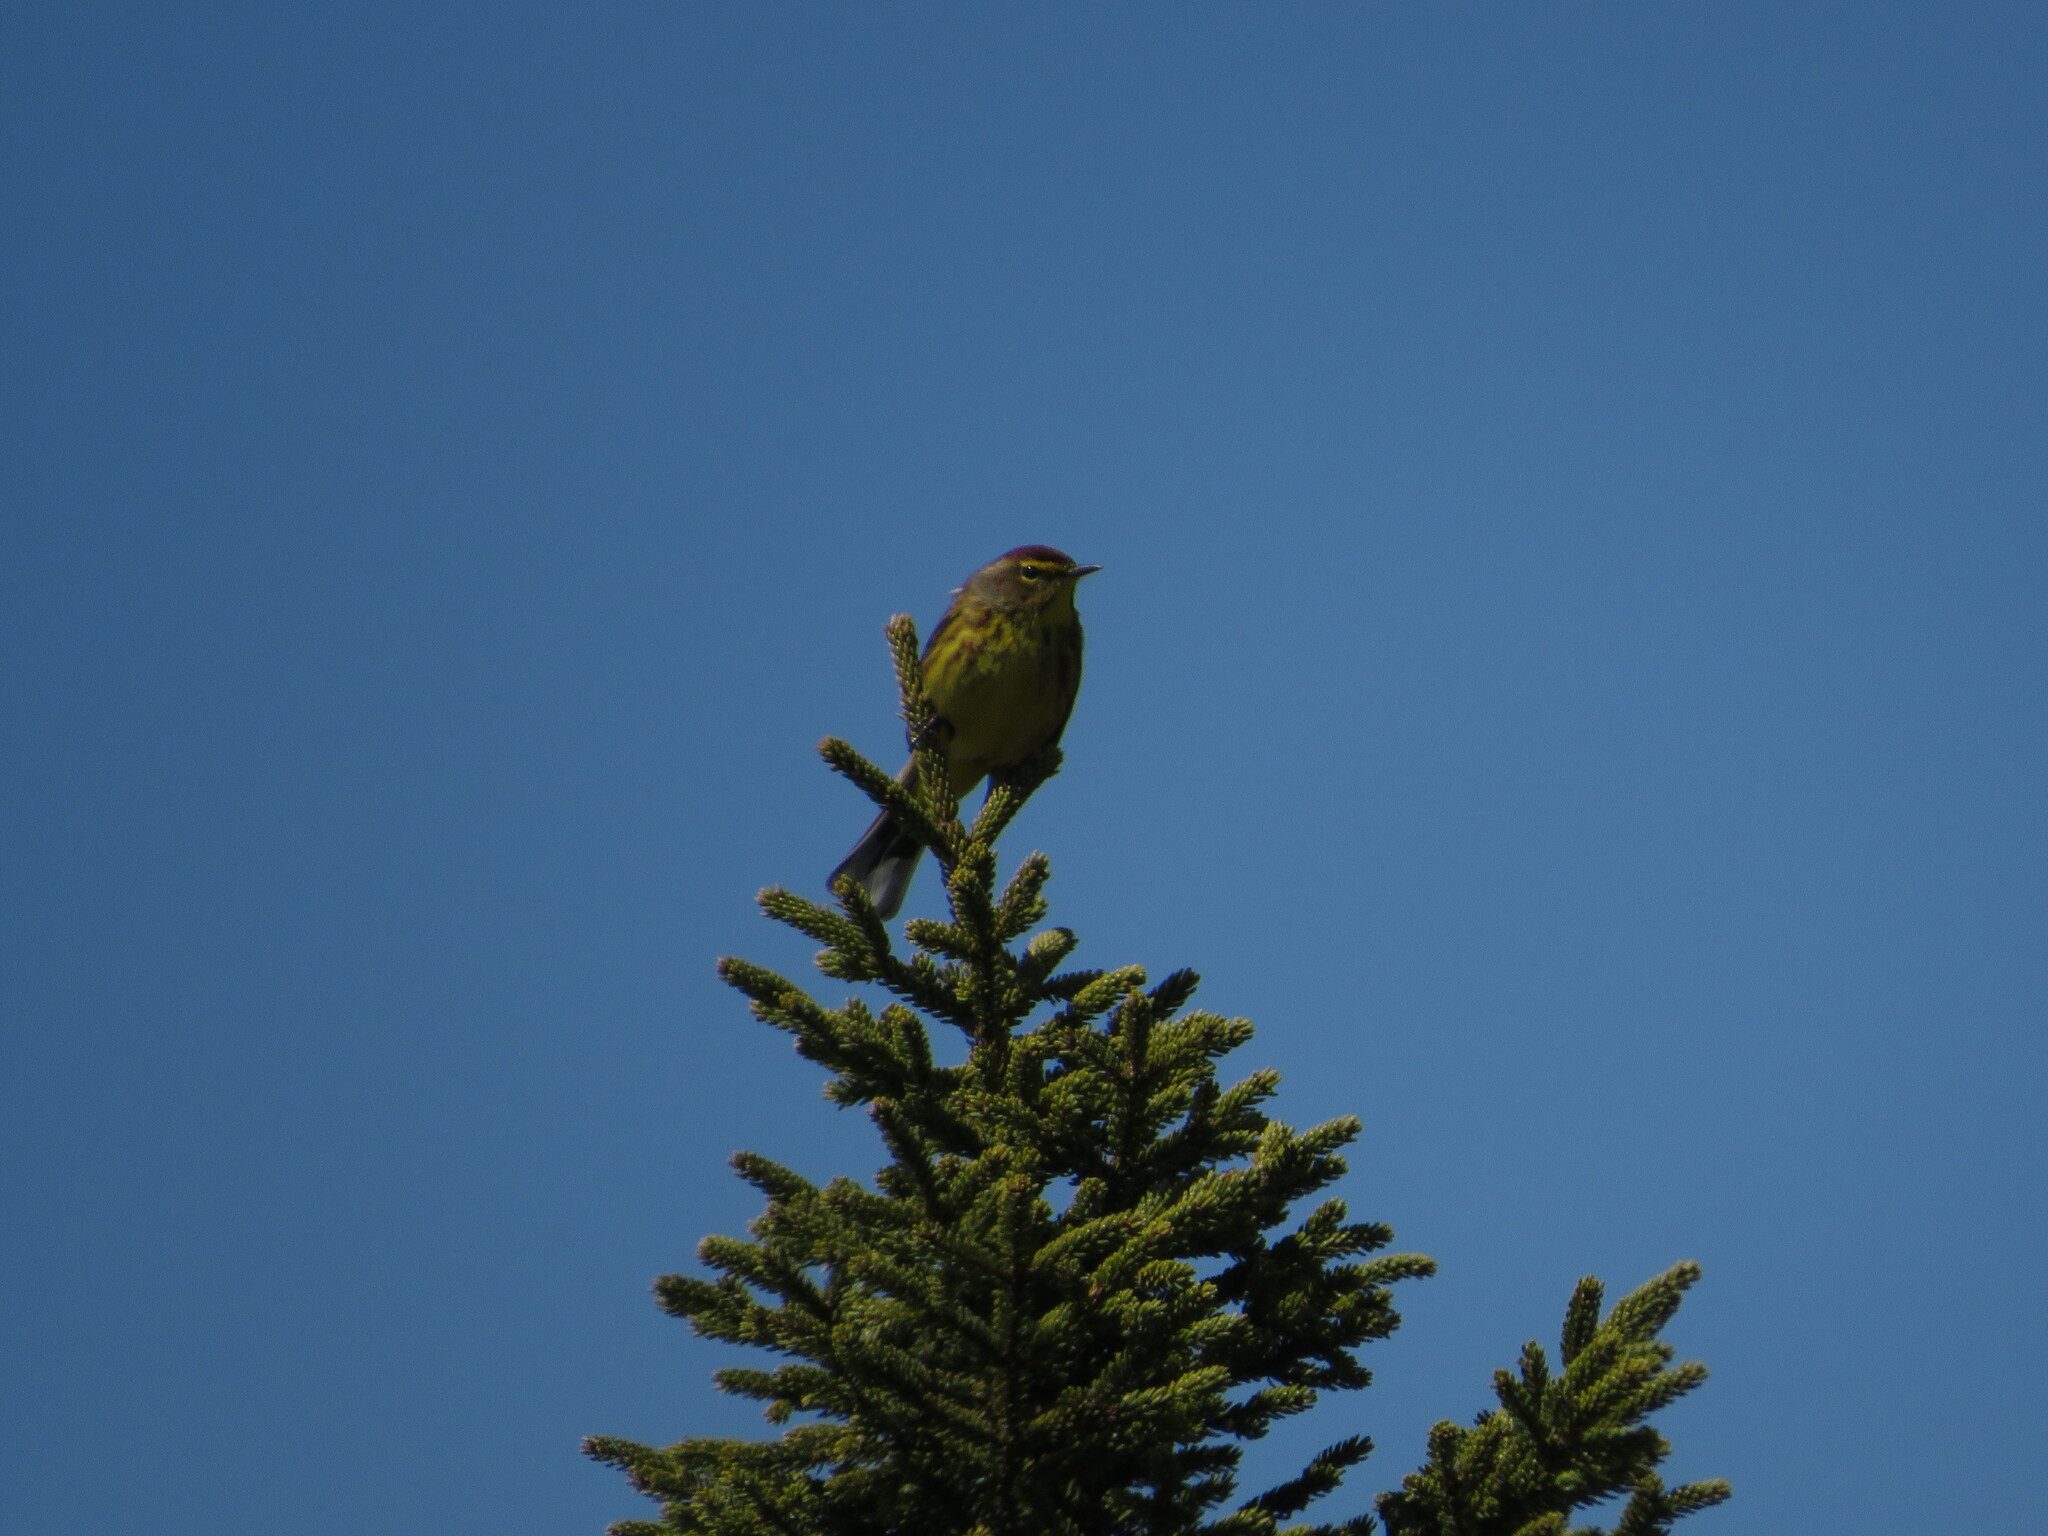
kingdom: Animalia
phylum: Chordata
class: Aves
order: Passeriformes
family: Parulidae
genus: Setophaga
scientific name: Setophaga palmarum
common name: Palm warbler
